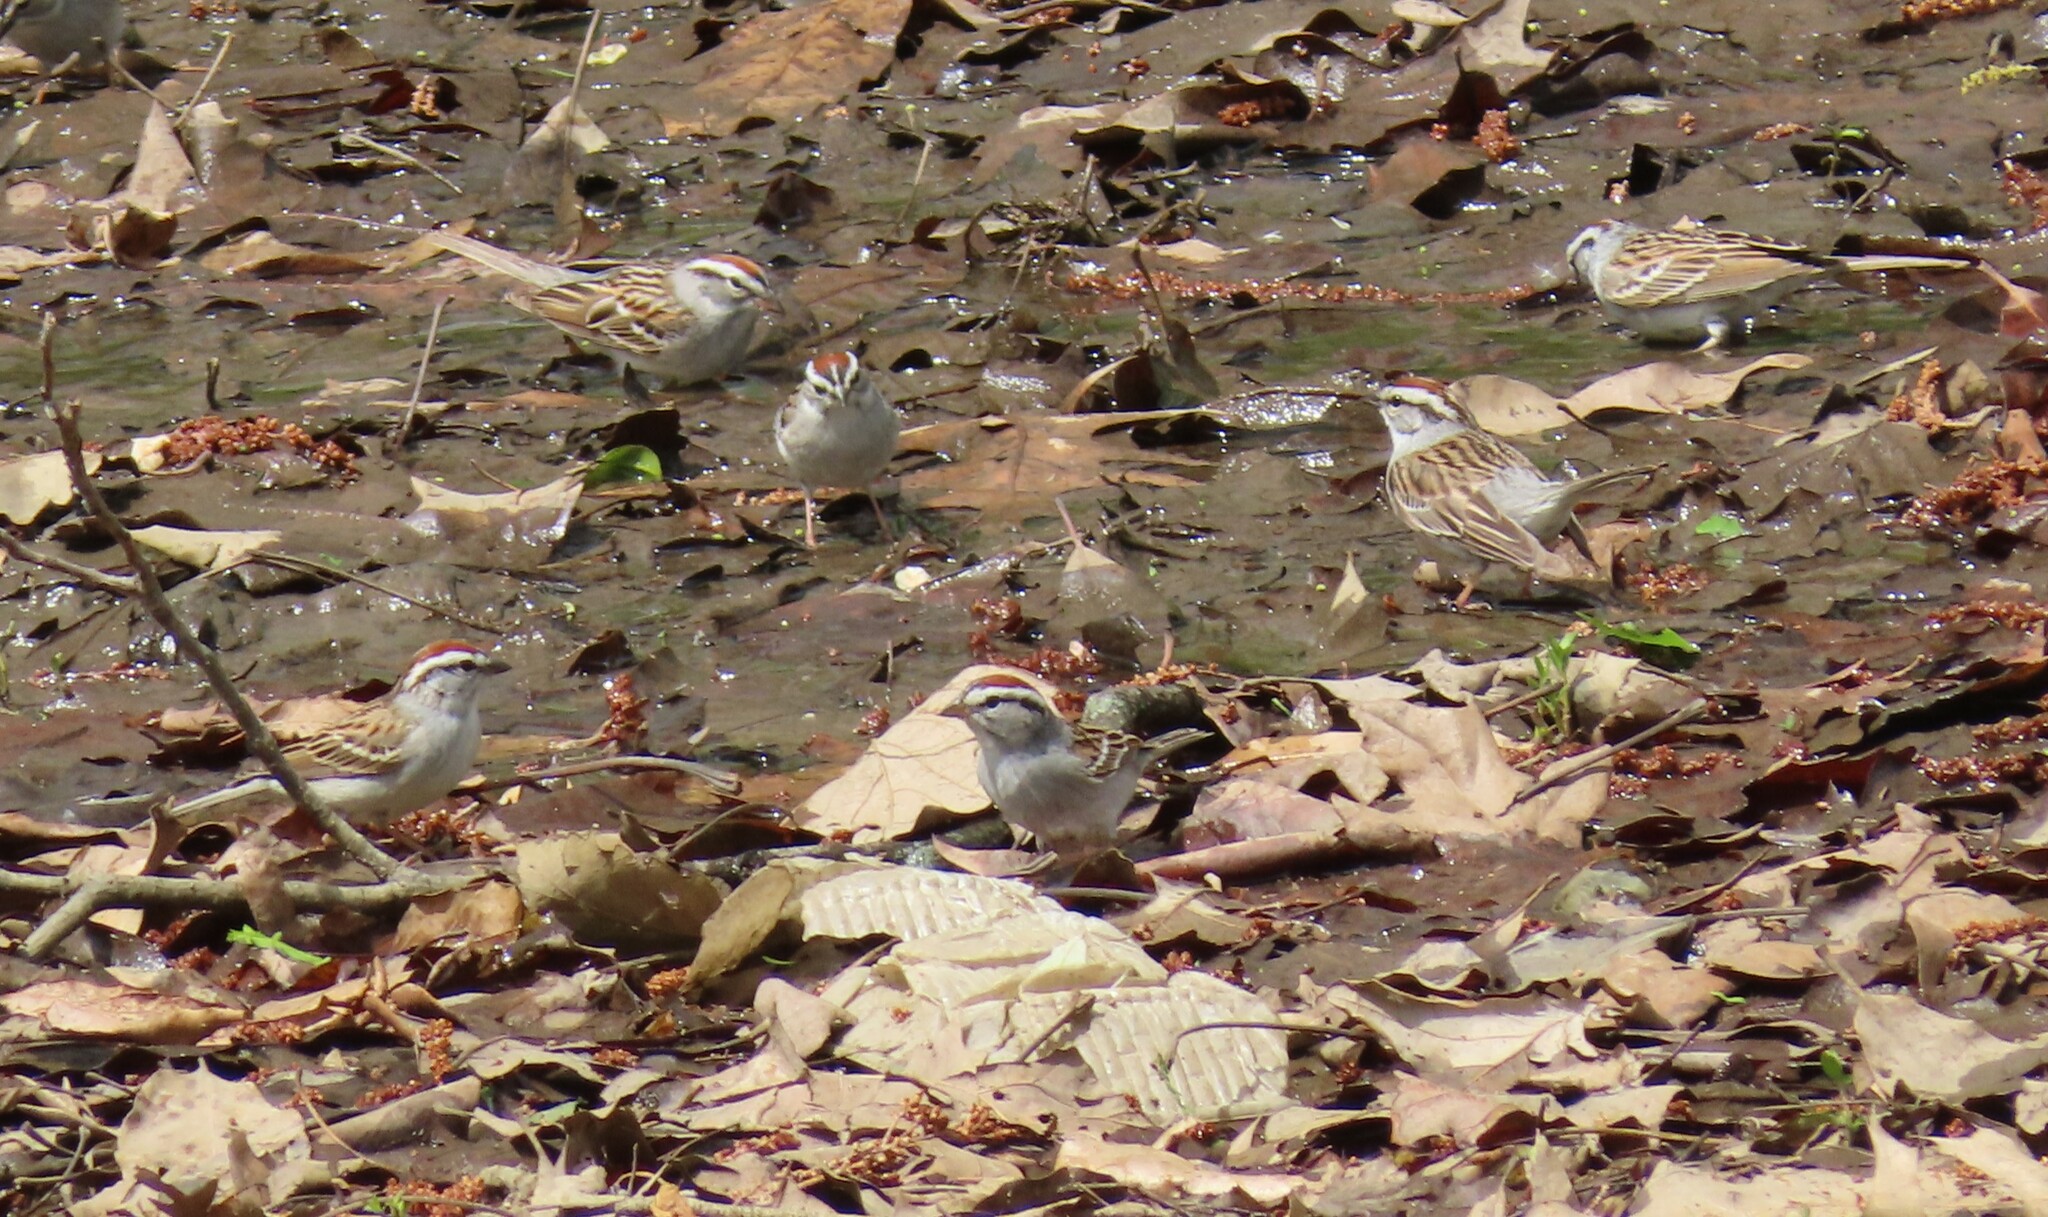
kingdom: Animalia
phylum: Chordata
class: Aves
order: Passeriformes
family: Passerellidae
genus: Spizella
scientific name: Spizella passerina
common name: Chipping sparrow
